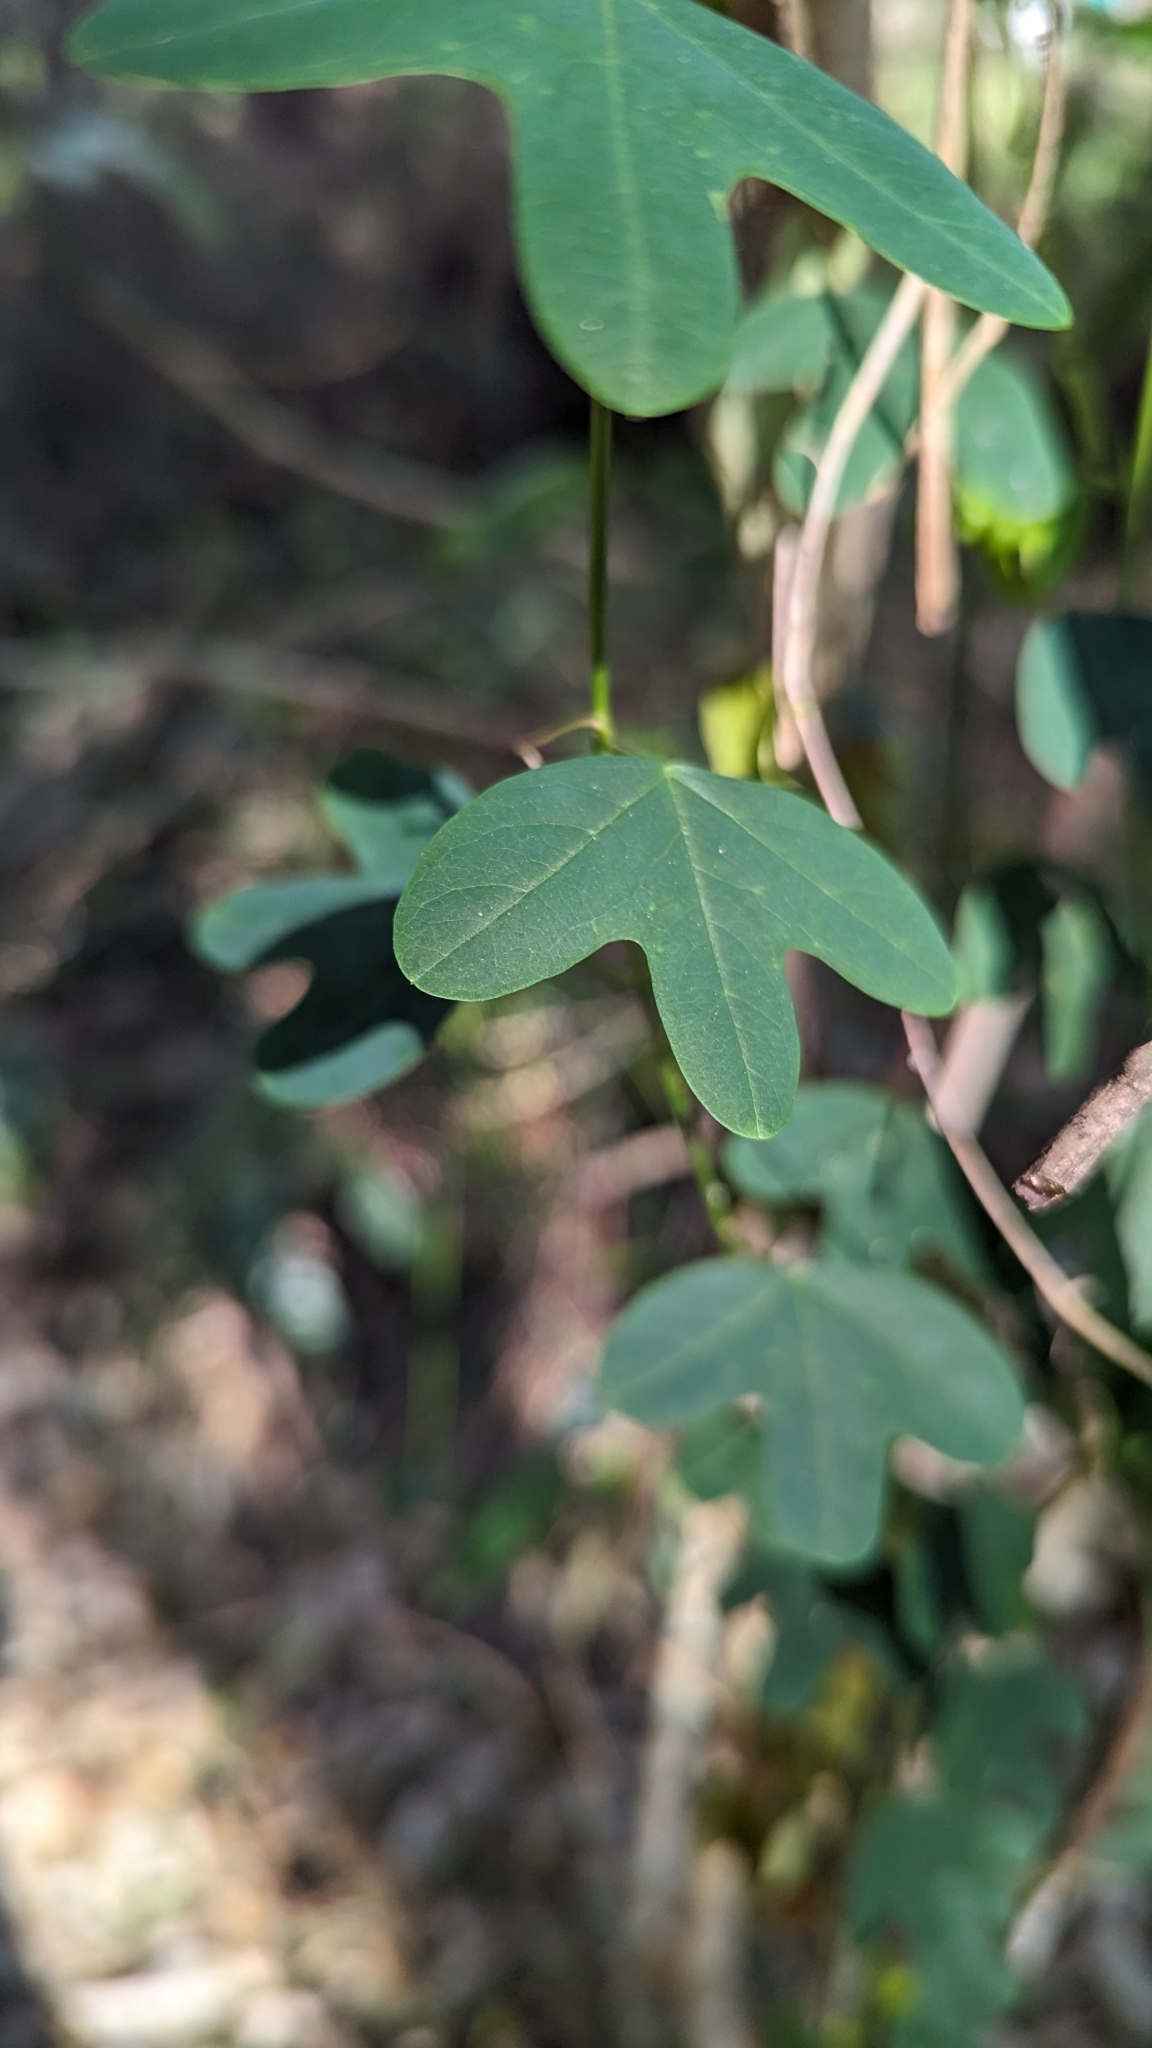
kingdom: Plantae
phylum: Tracheophyta
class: Magnoliopsida
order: Malpighiales
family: Passifloraceae
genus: Passiflora
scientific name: Passiflora aurantia
